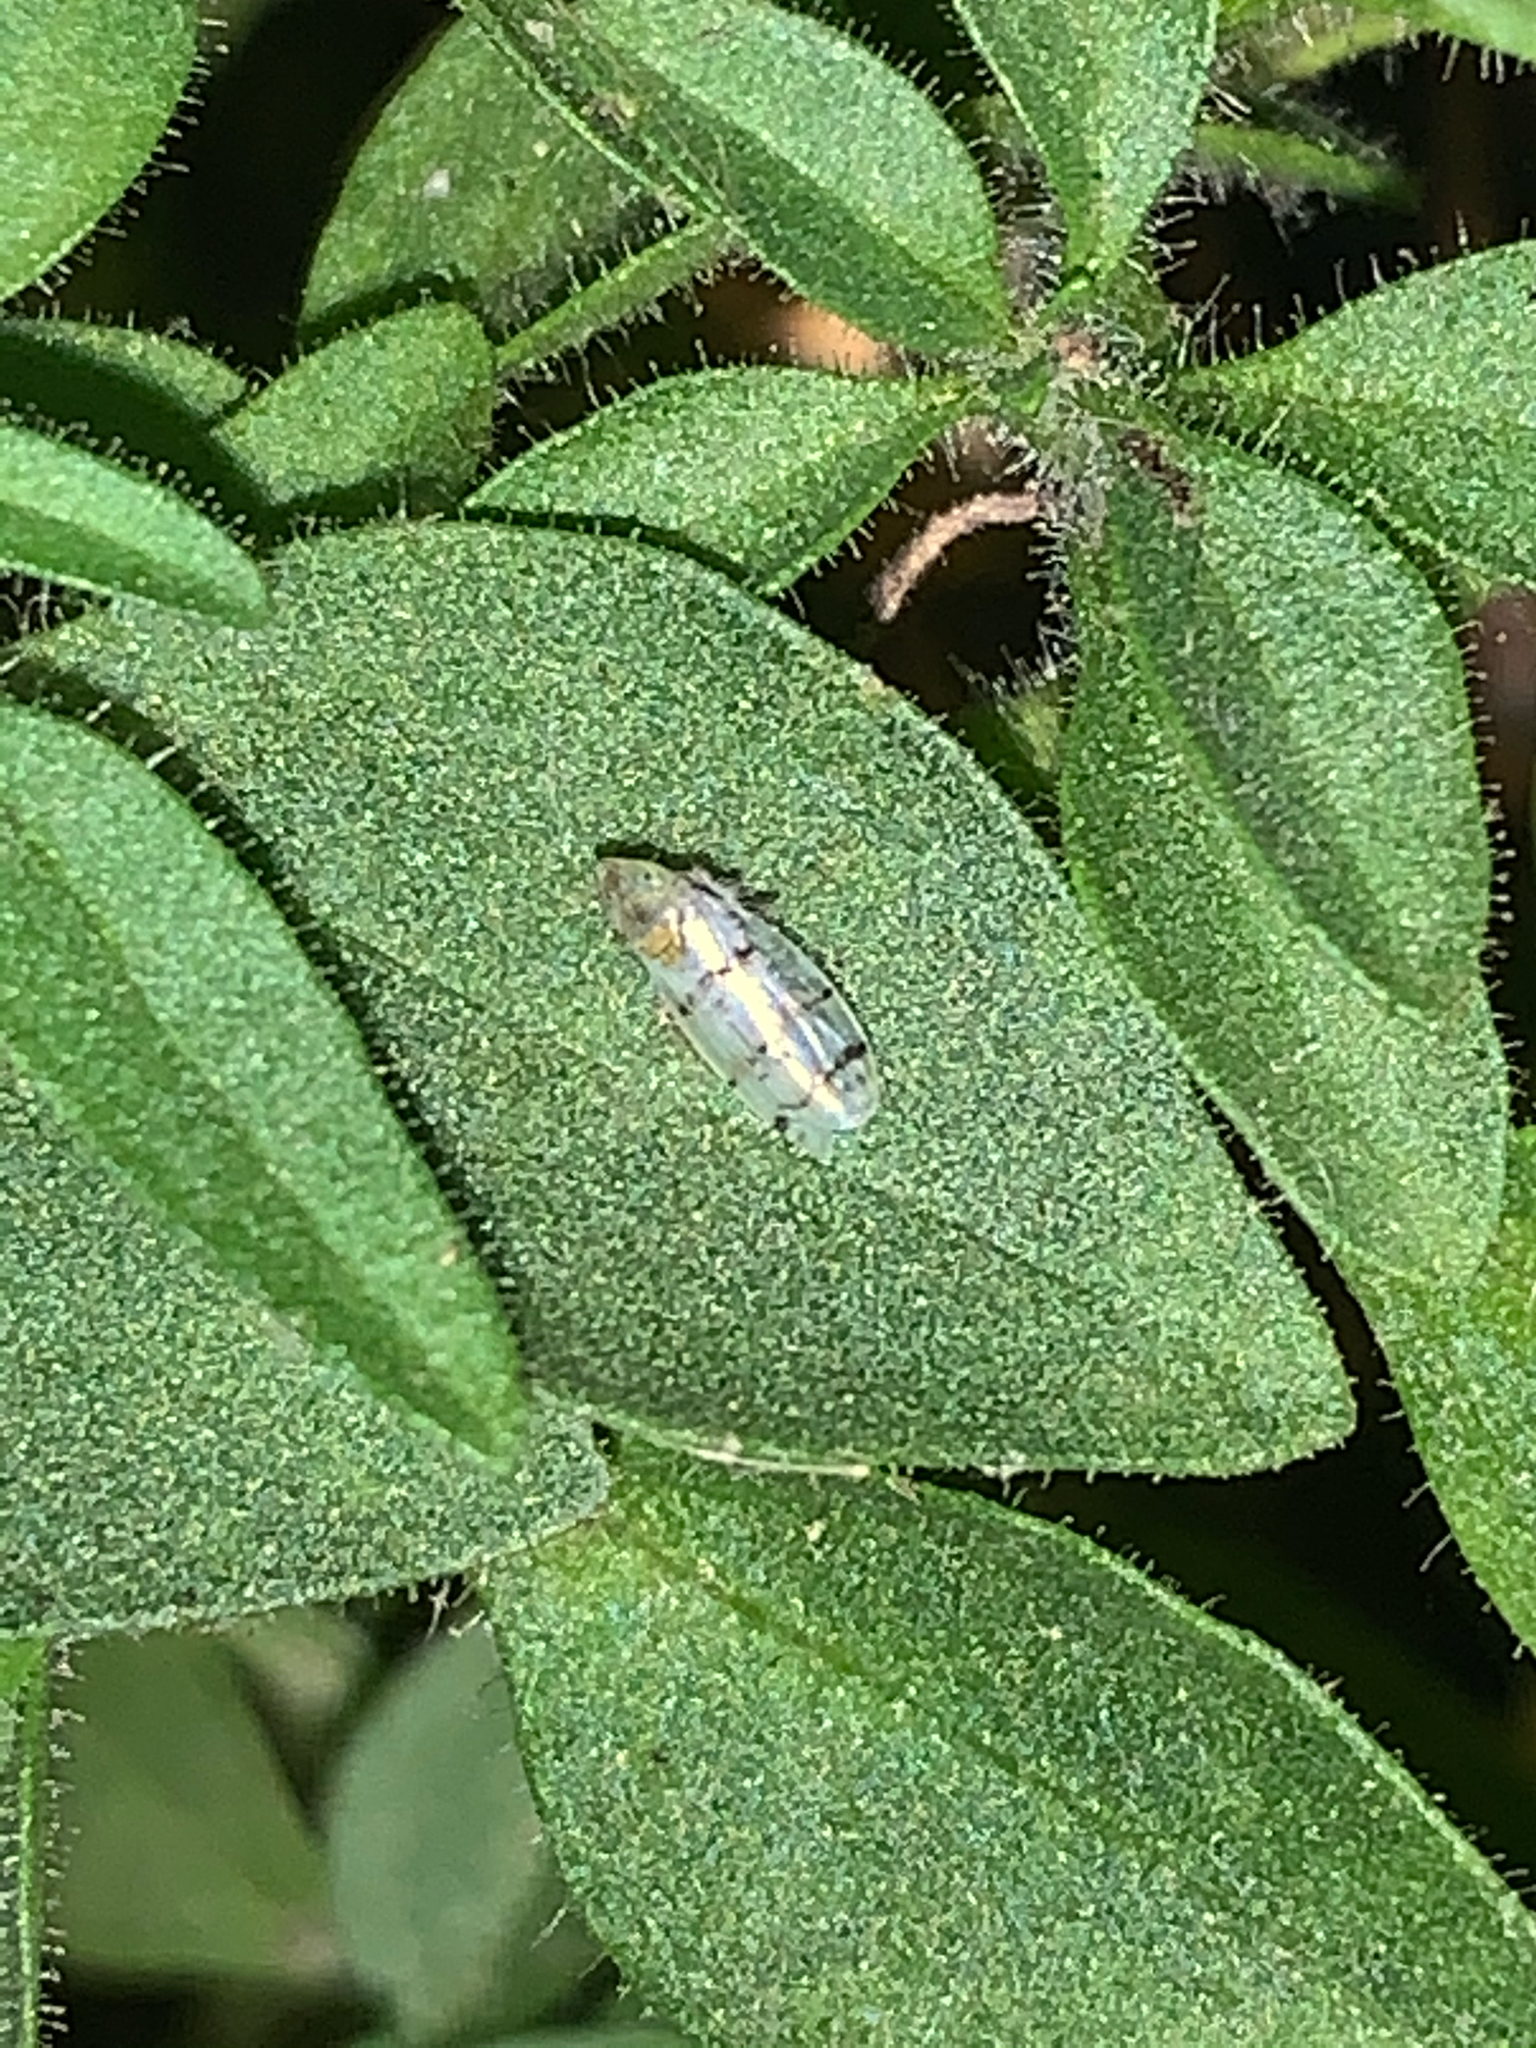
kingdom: Animalia
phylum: Arthropoda
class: Insecta
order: Hemiptera
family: Cicadellidae
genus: Japananus
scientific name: Japananus hyalinus
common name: The japanese maple leafhopper
